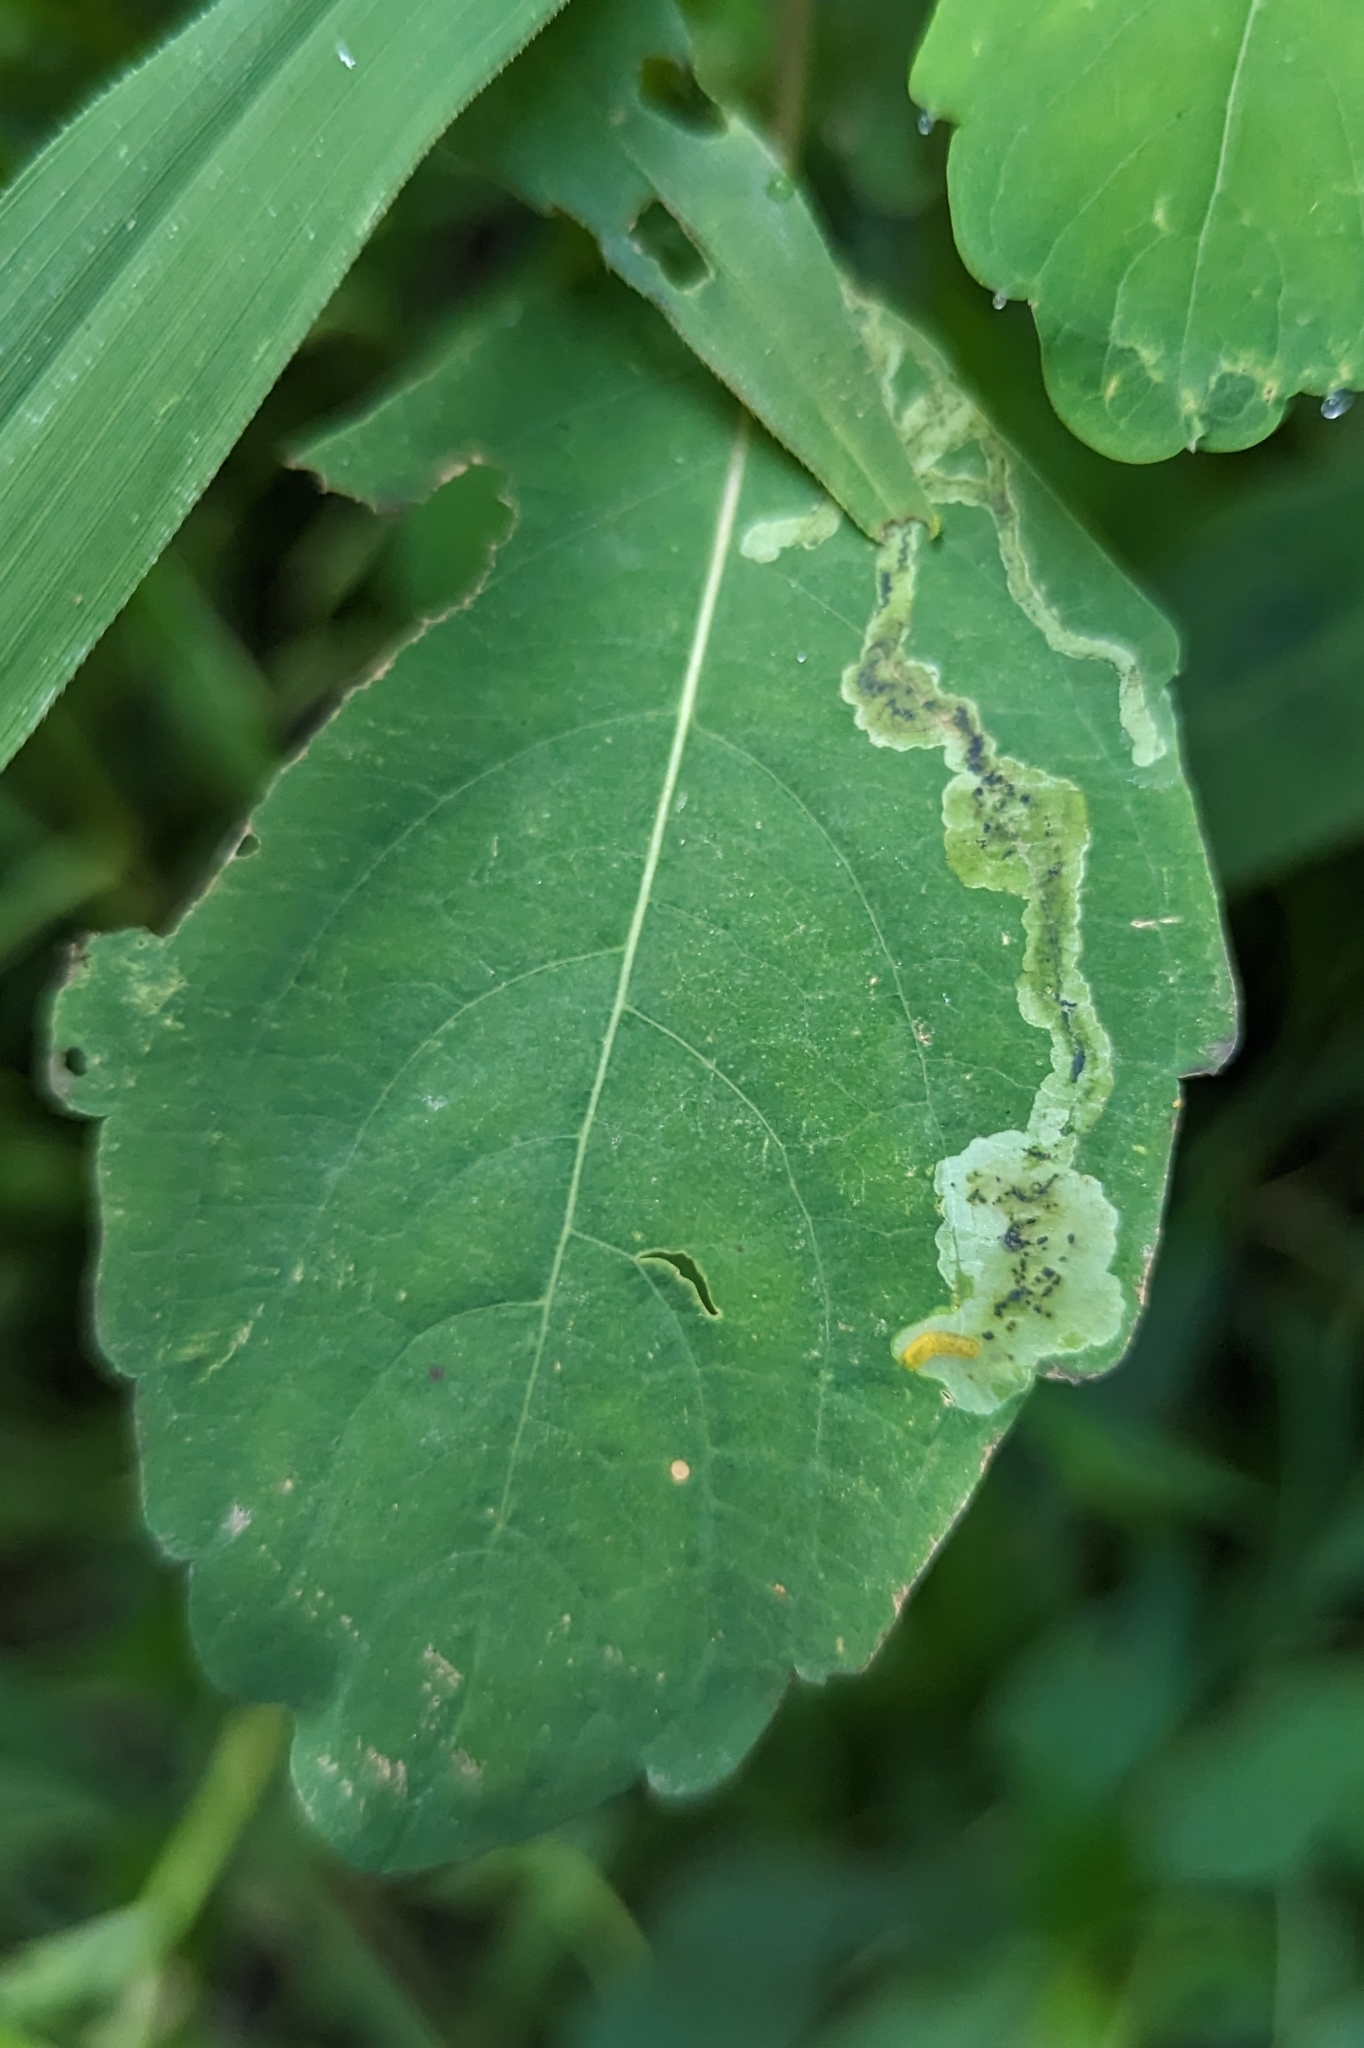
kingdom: Animalia
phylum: Arthropoda
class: Insecta
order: Diptera
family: Agromyzidae
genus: Phytoliriomyza
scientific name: Phytoliriomyza melampyga
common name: Jewelweed leaf-miner fly
